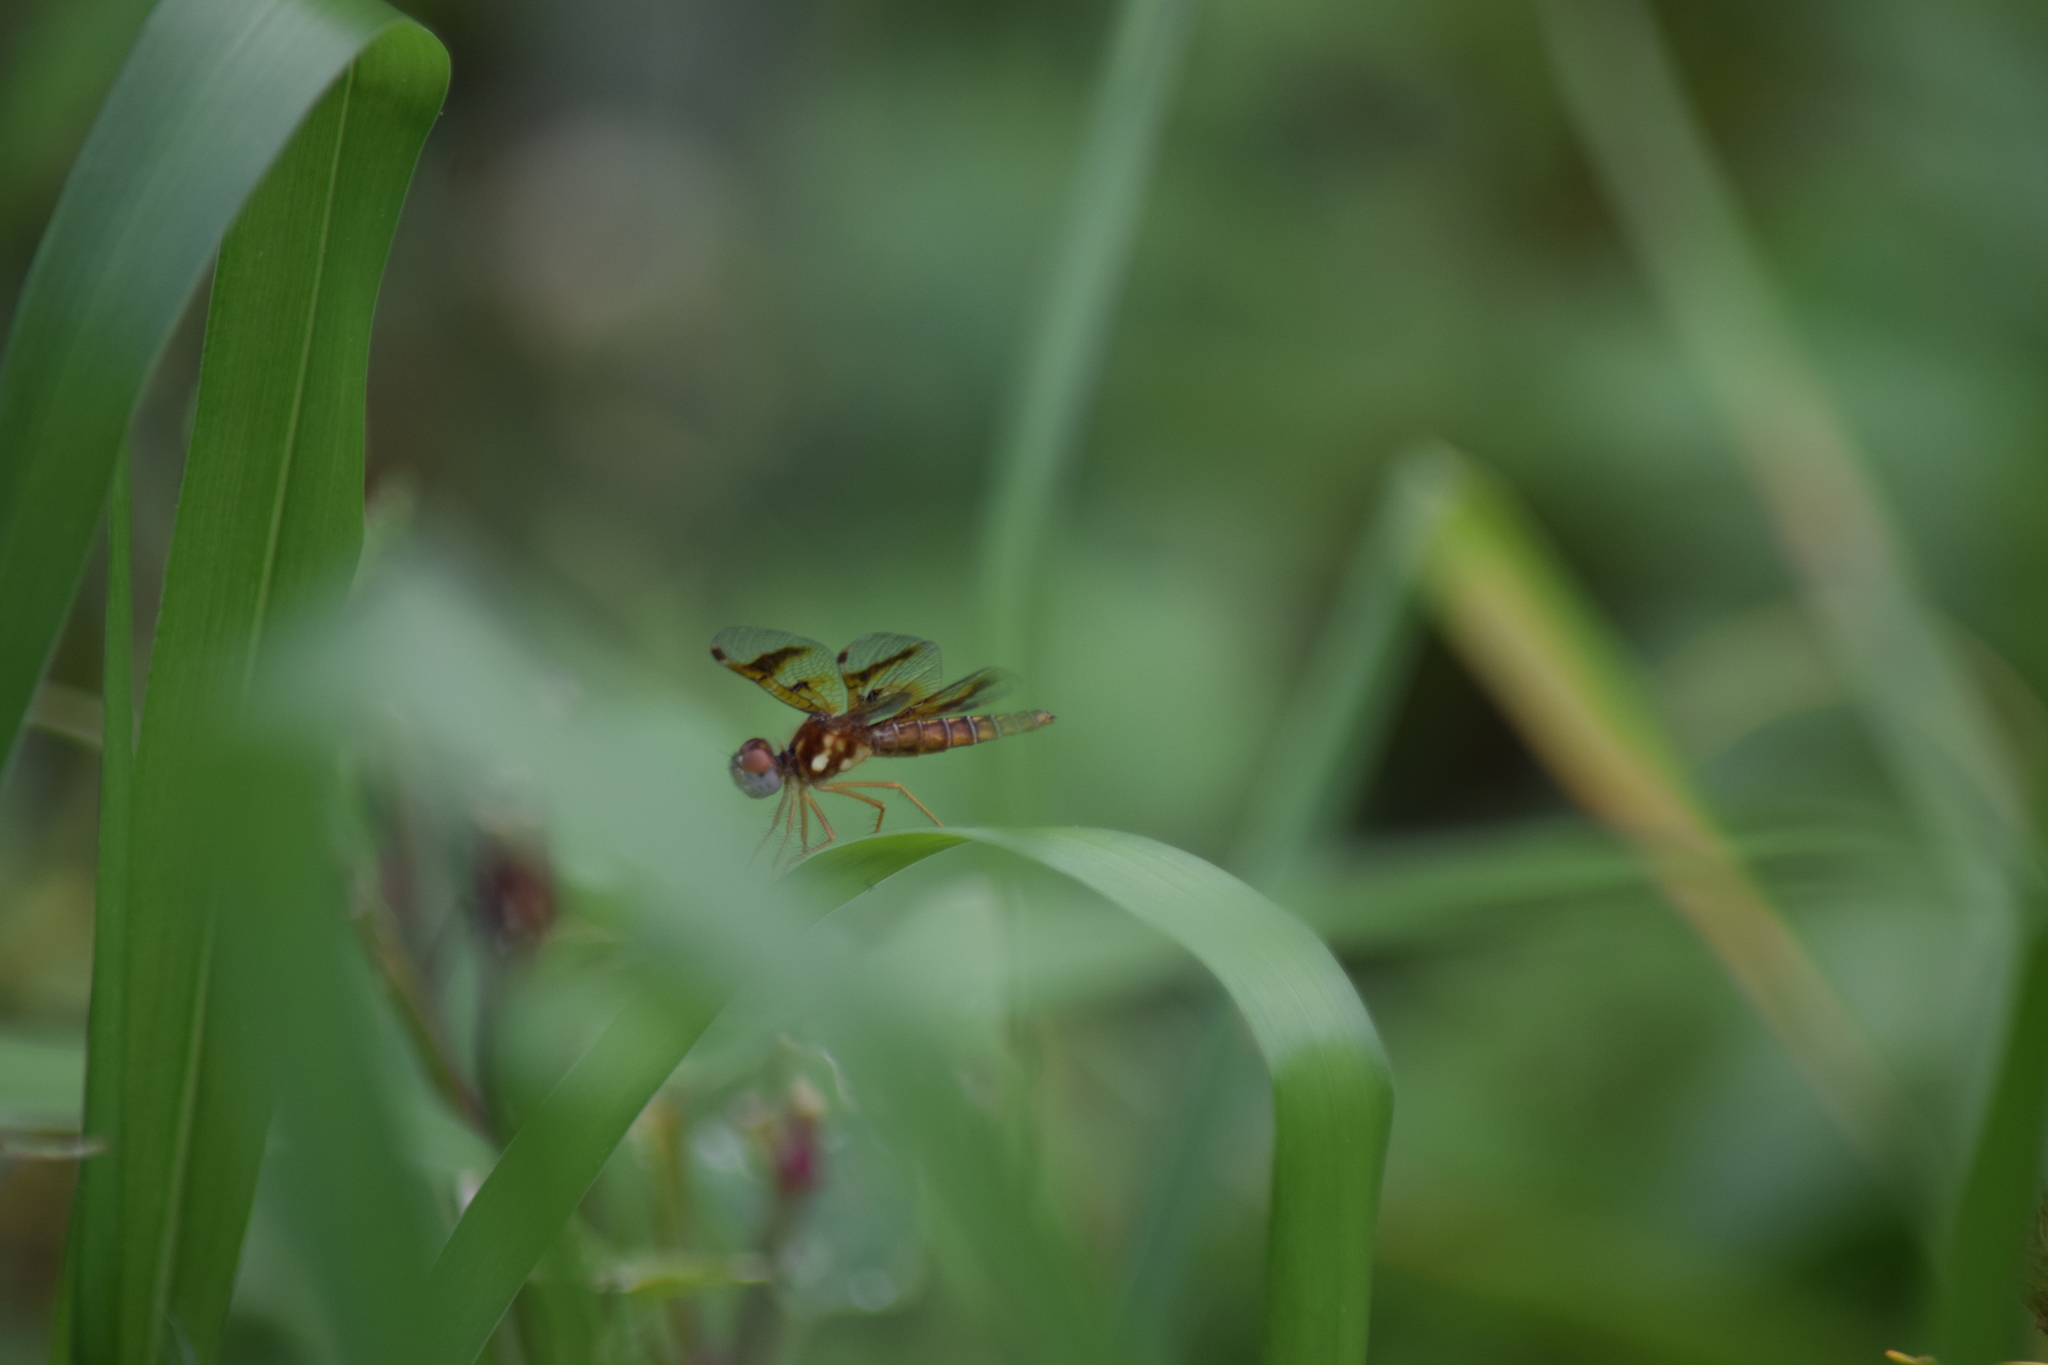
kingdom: Animalia
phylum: Arthropoda
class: Insecta
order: Odonata
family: Libellulidae
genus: Perithemis
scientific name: Perithemis tenera
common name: Eastern amberwing
